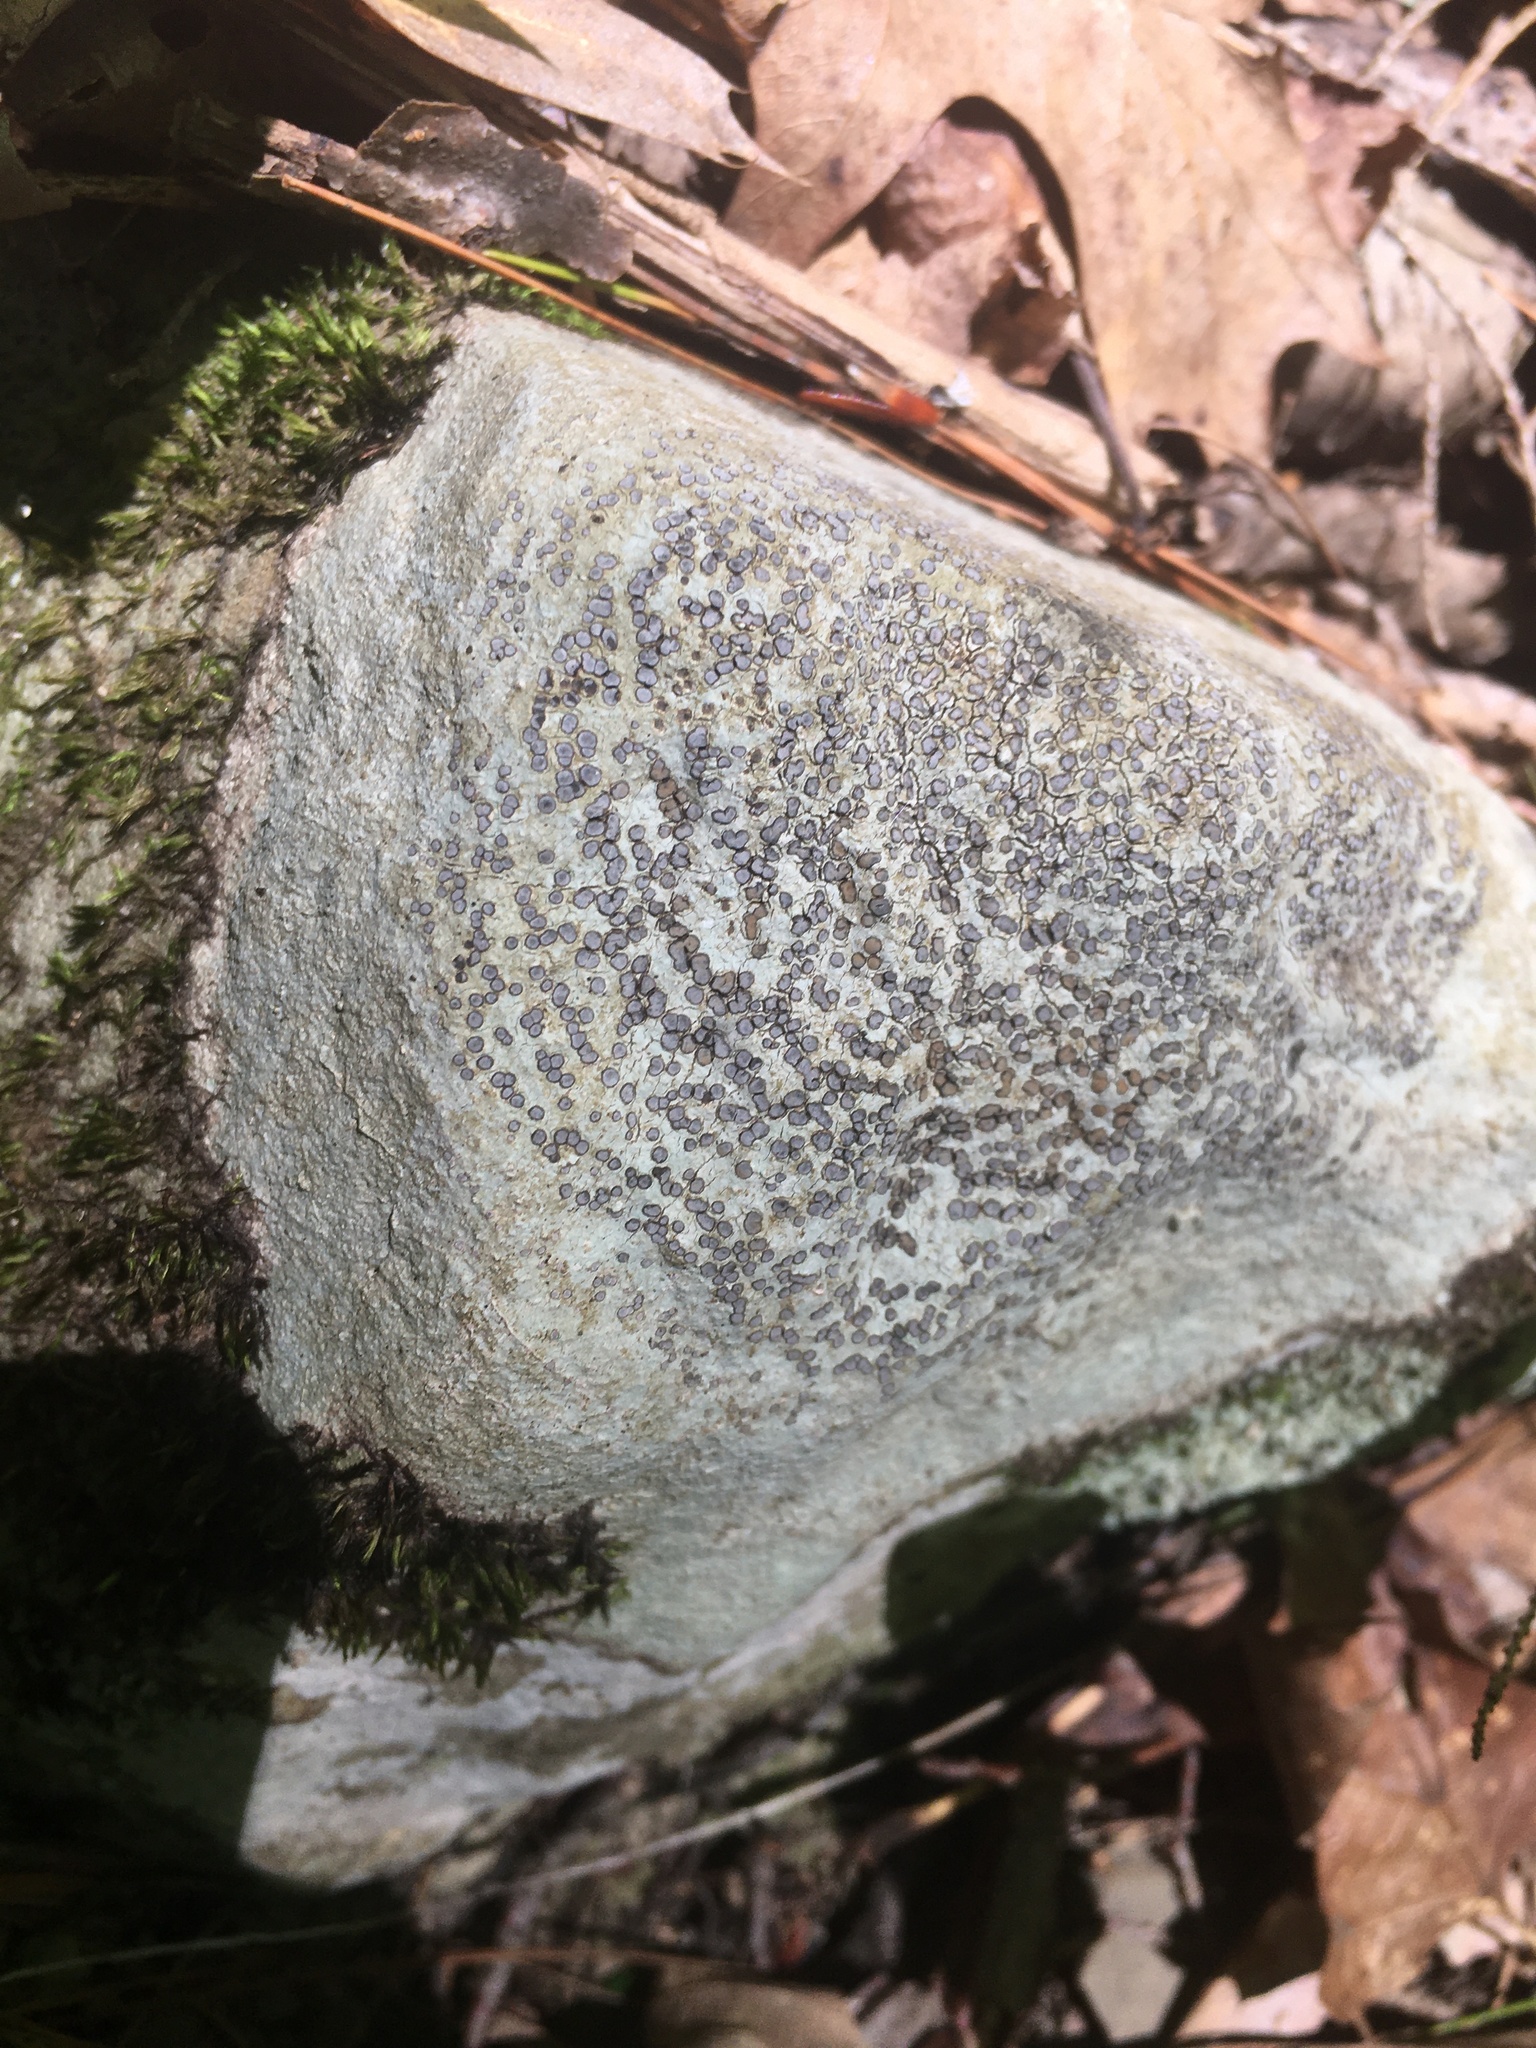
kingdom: Fungi
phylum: Ascomycota
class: Lecanoromycetes
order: Lecideales
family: Lecideaceae
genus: Porpidia
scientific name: Porpidia albocaerulescens
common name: Smokey-eyed boulder lichen
